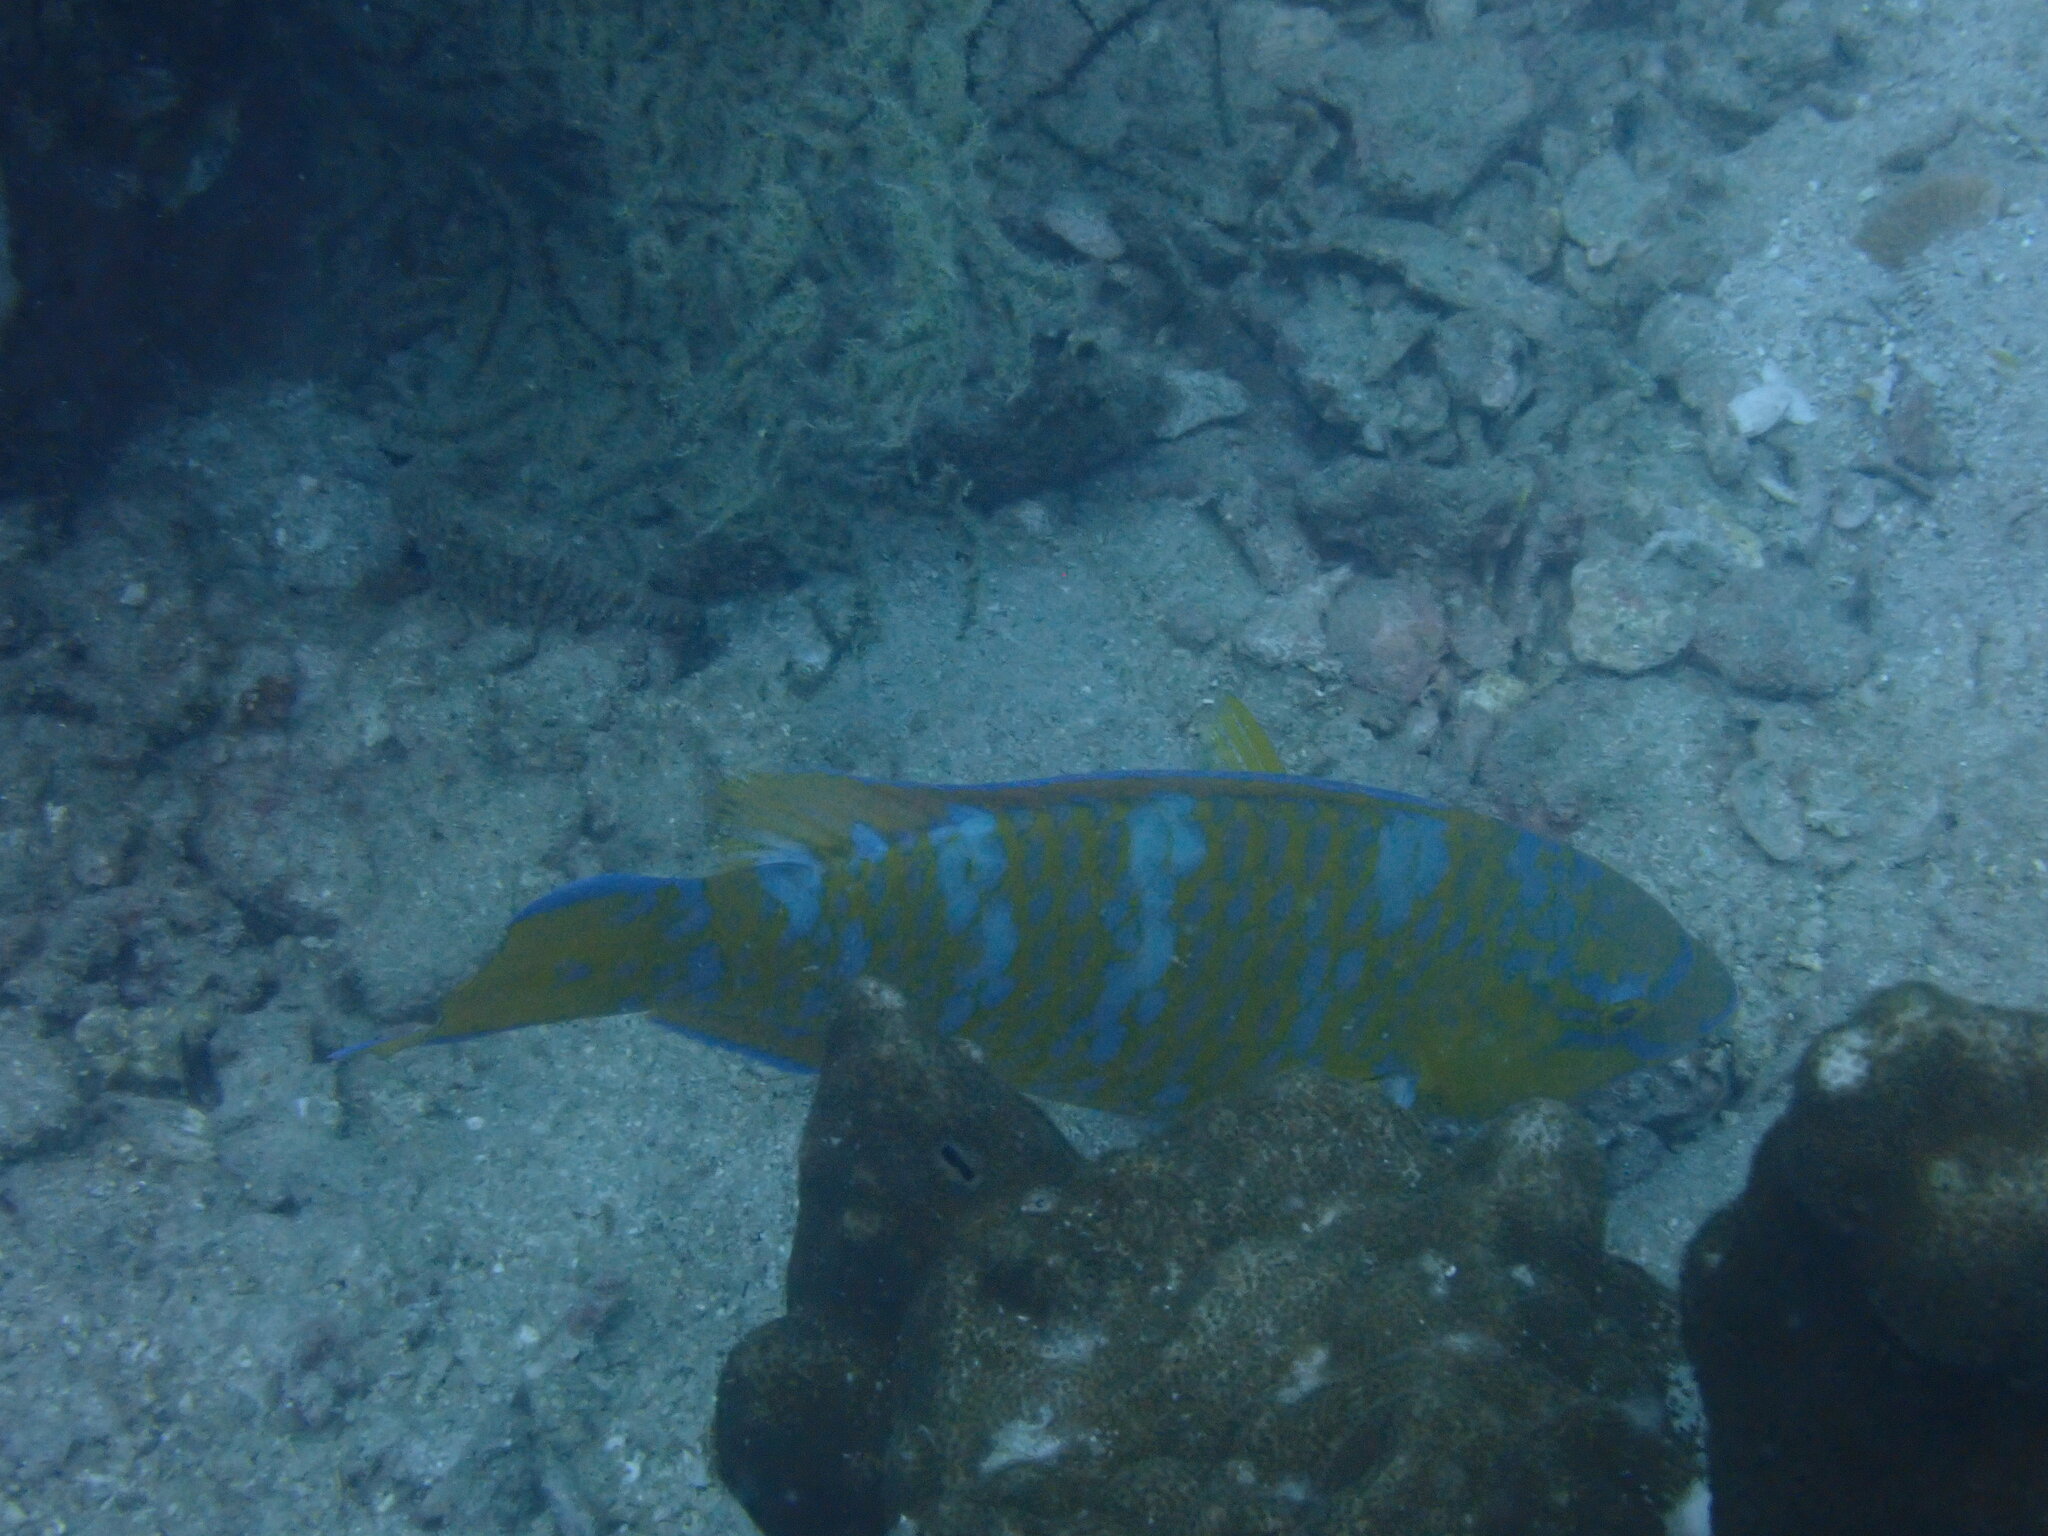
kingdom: Animalia
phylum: Chordata
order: Perciformes
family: Scaridae
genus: Scarus
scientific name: Scarus ghobban
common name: Blue-barred parrotfish
